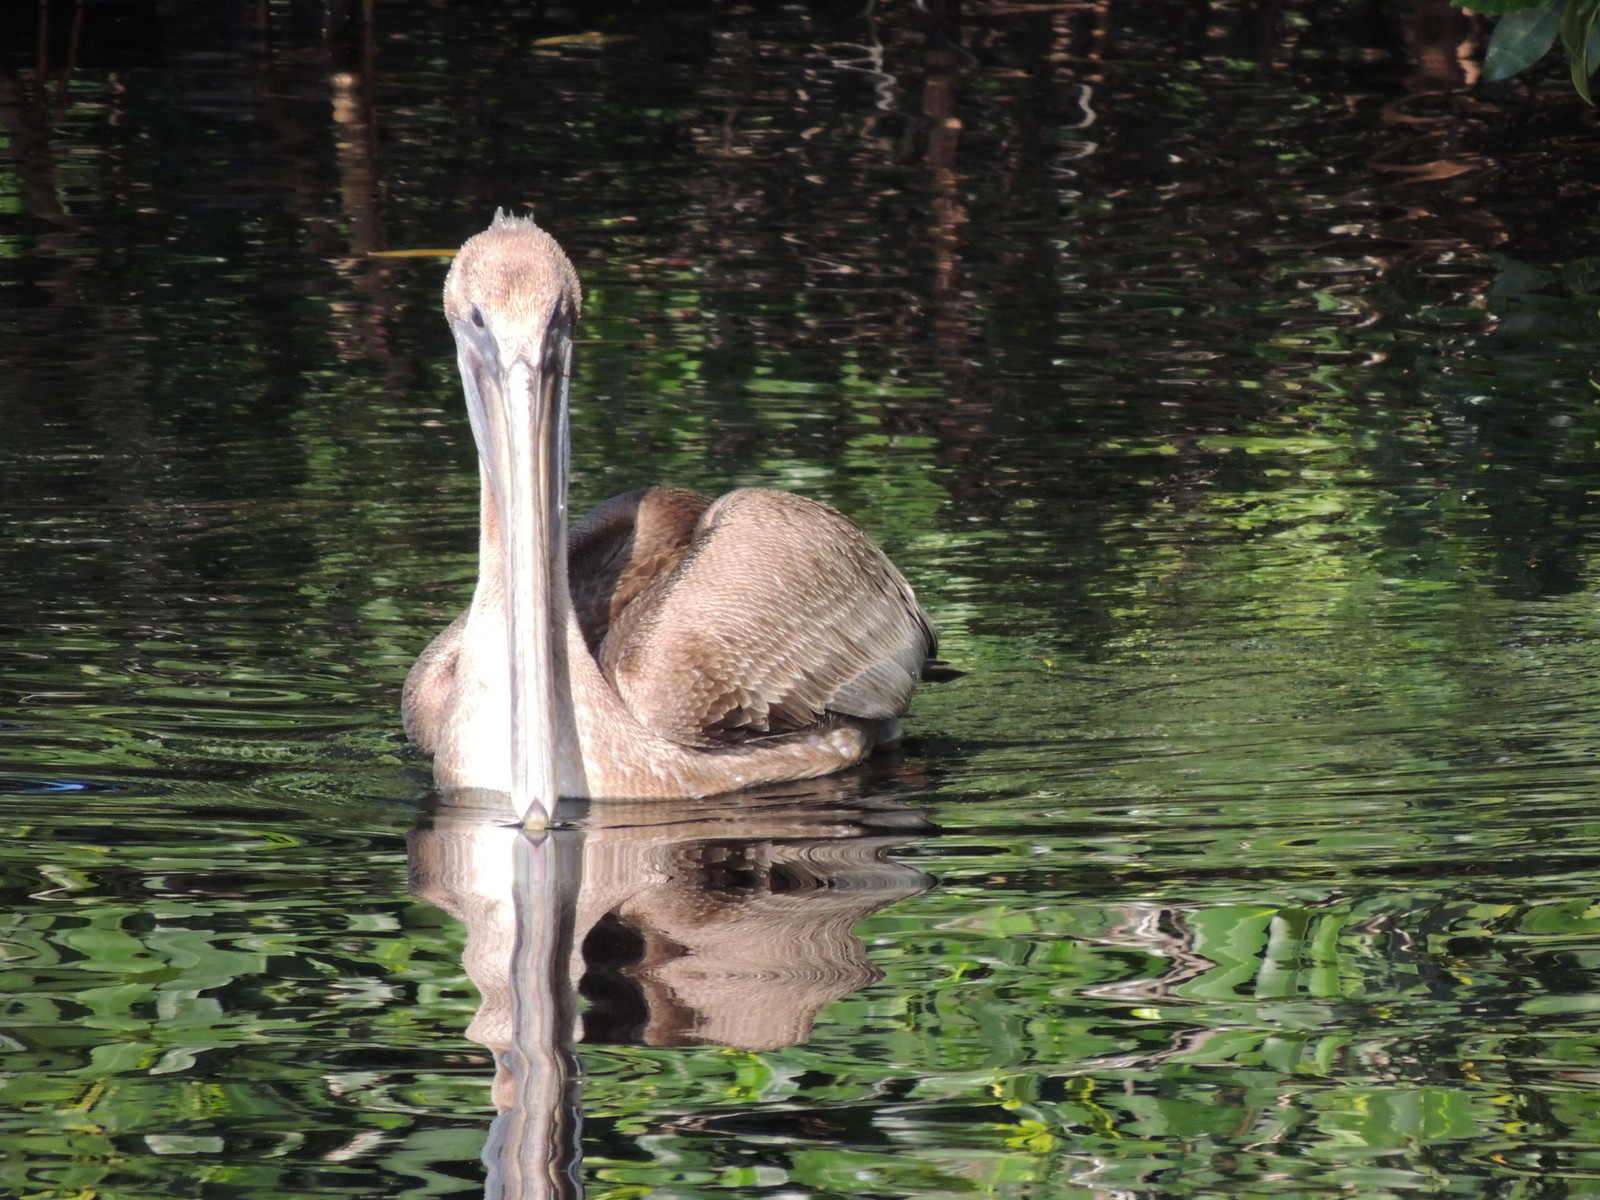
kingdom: Animalia
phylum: Chordata
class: Aves
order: Pelecaniformes
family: Pelecanidae
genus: Pelecanus
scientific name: Pelecanus occidentalis
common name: Brown pelican
